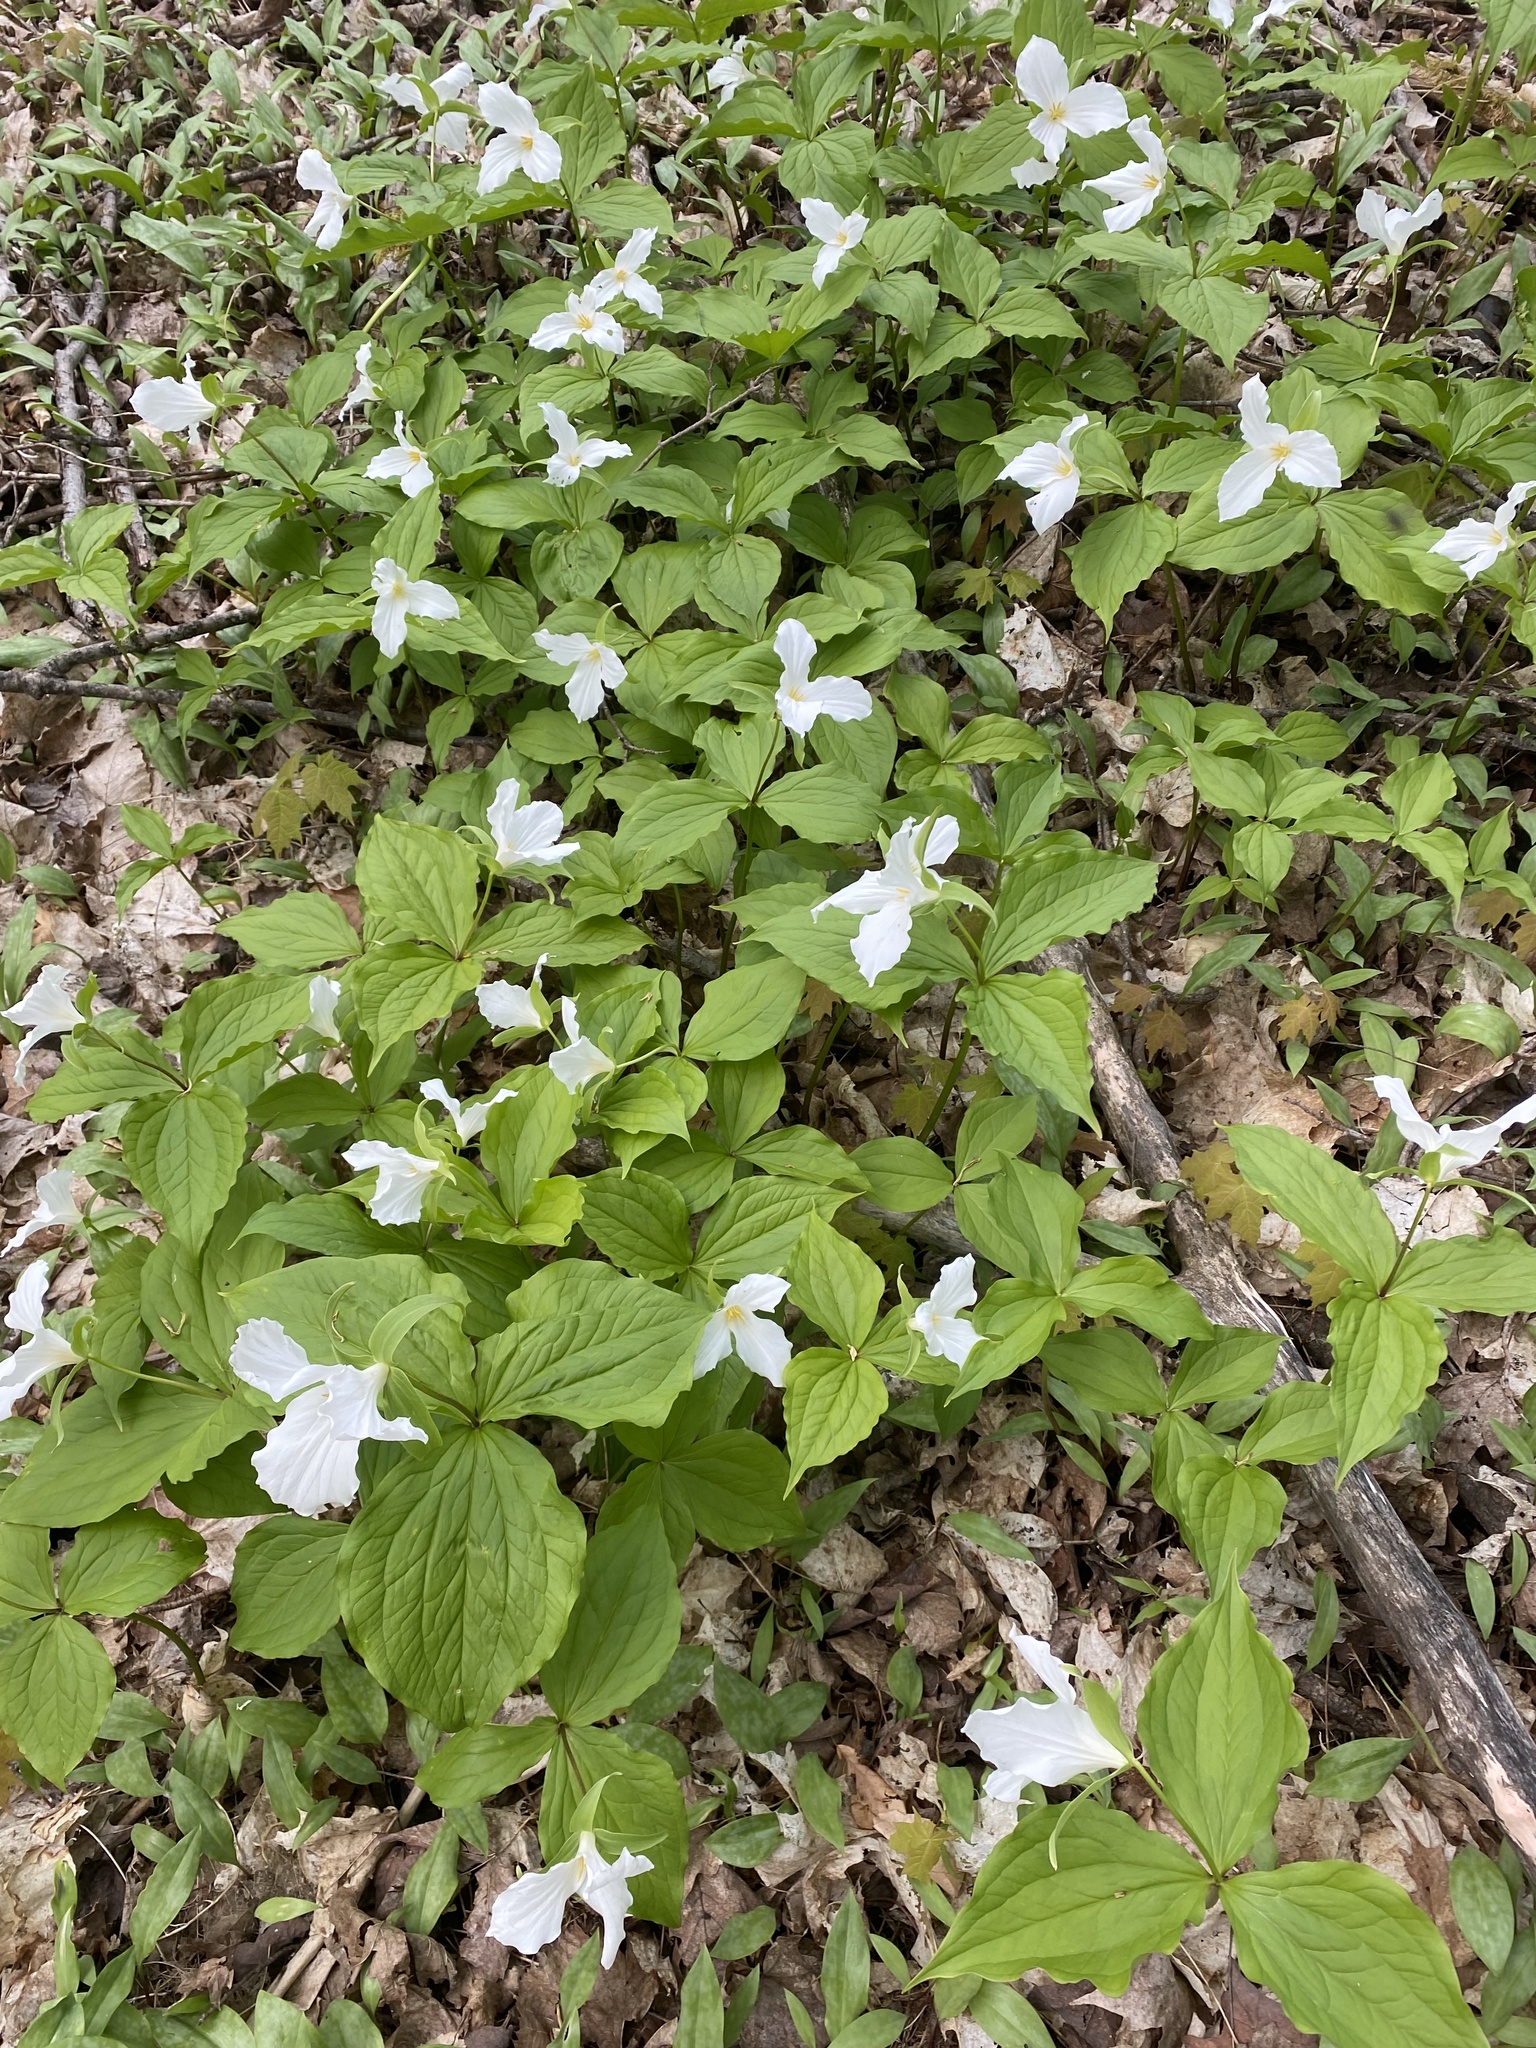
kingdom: Plantae
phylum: Tracheophyta
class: Liliopsida
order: Liliales
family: Melanthiaceae
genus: Trillium
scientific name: Trillium grandiflorum
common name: Great white trillium
